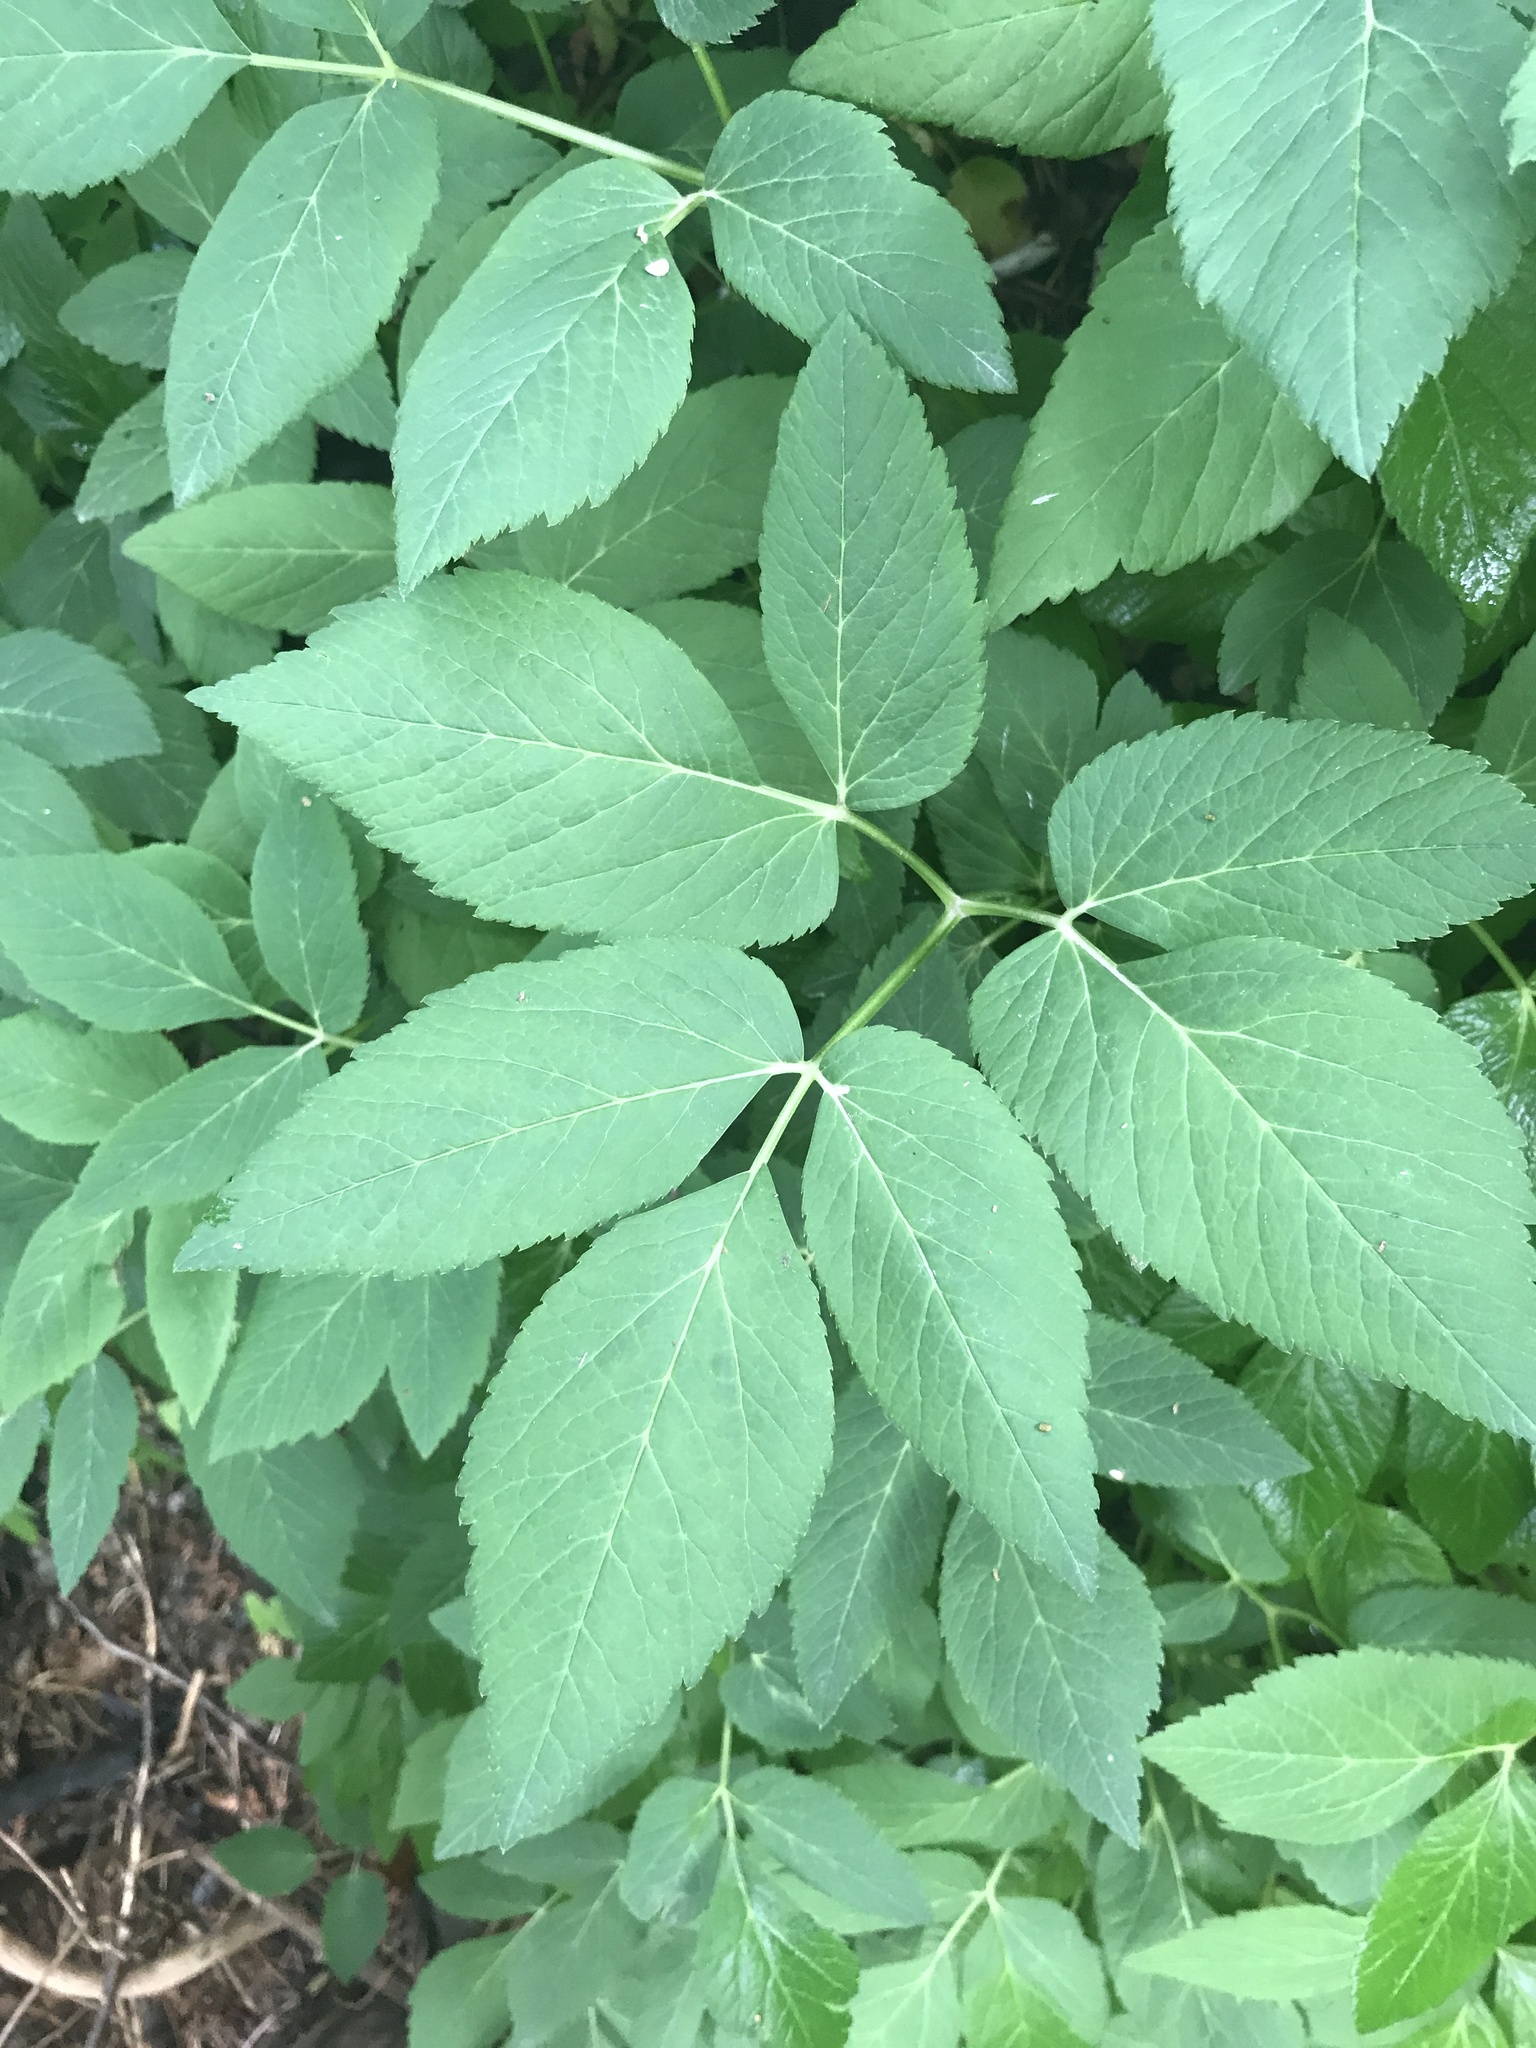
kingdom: Plantae
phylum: Tracheophyta
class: Magnoliopsida
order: Apiales
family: Apiaceae
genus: Aegopodium
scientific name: Aegopodium podagraria
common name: Ground-elder
